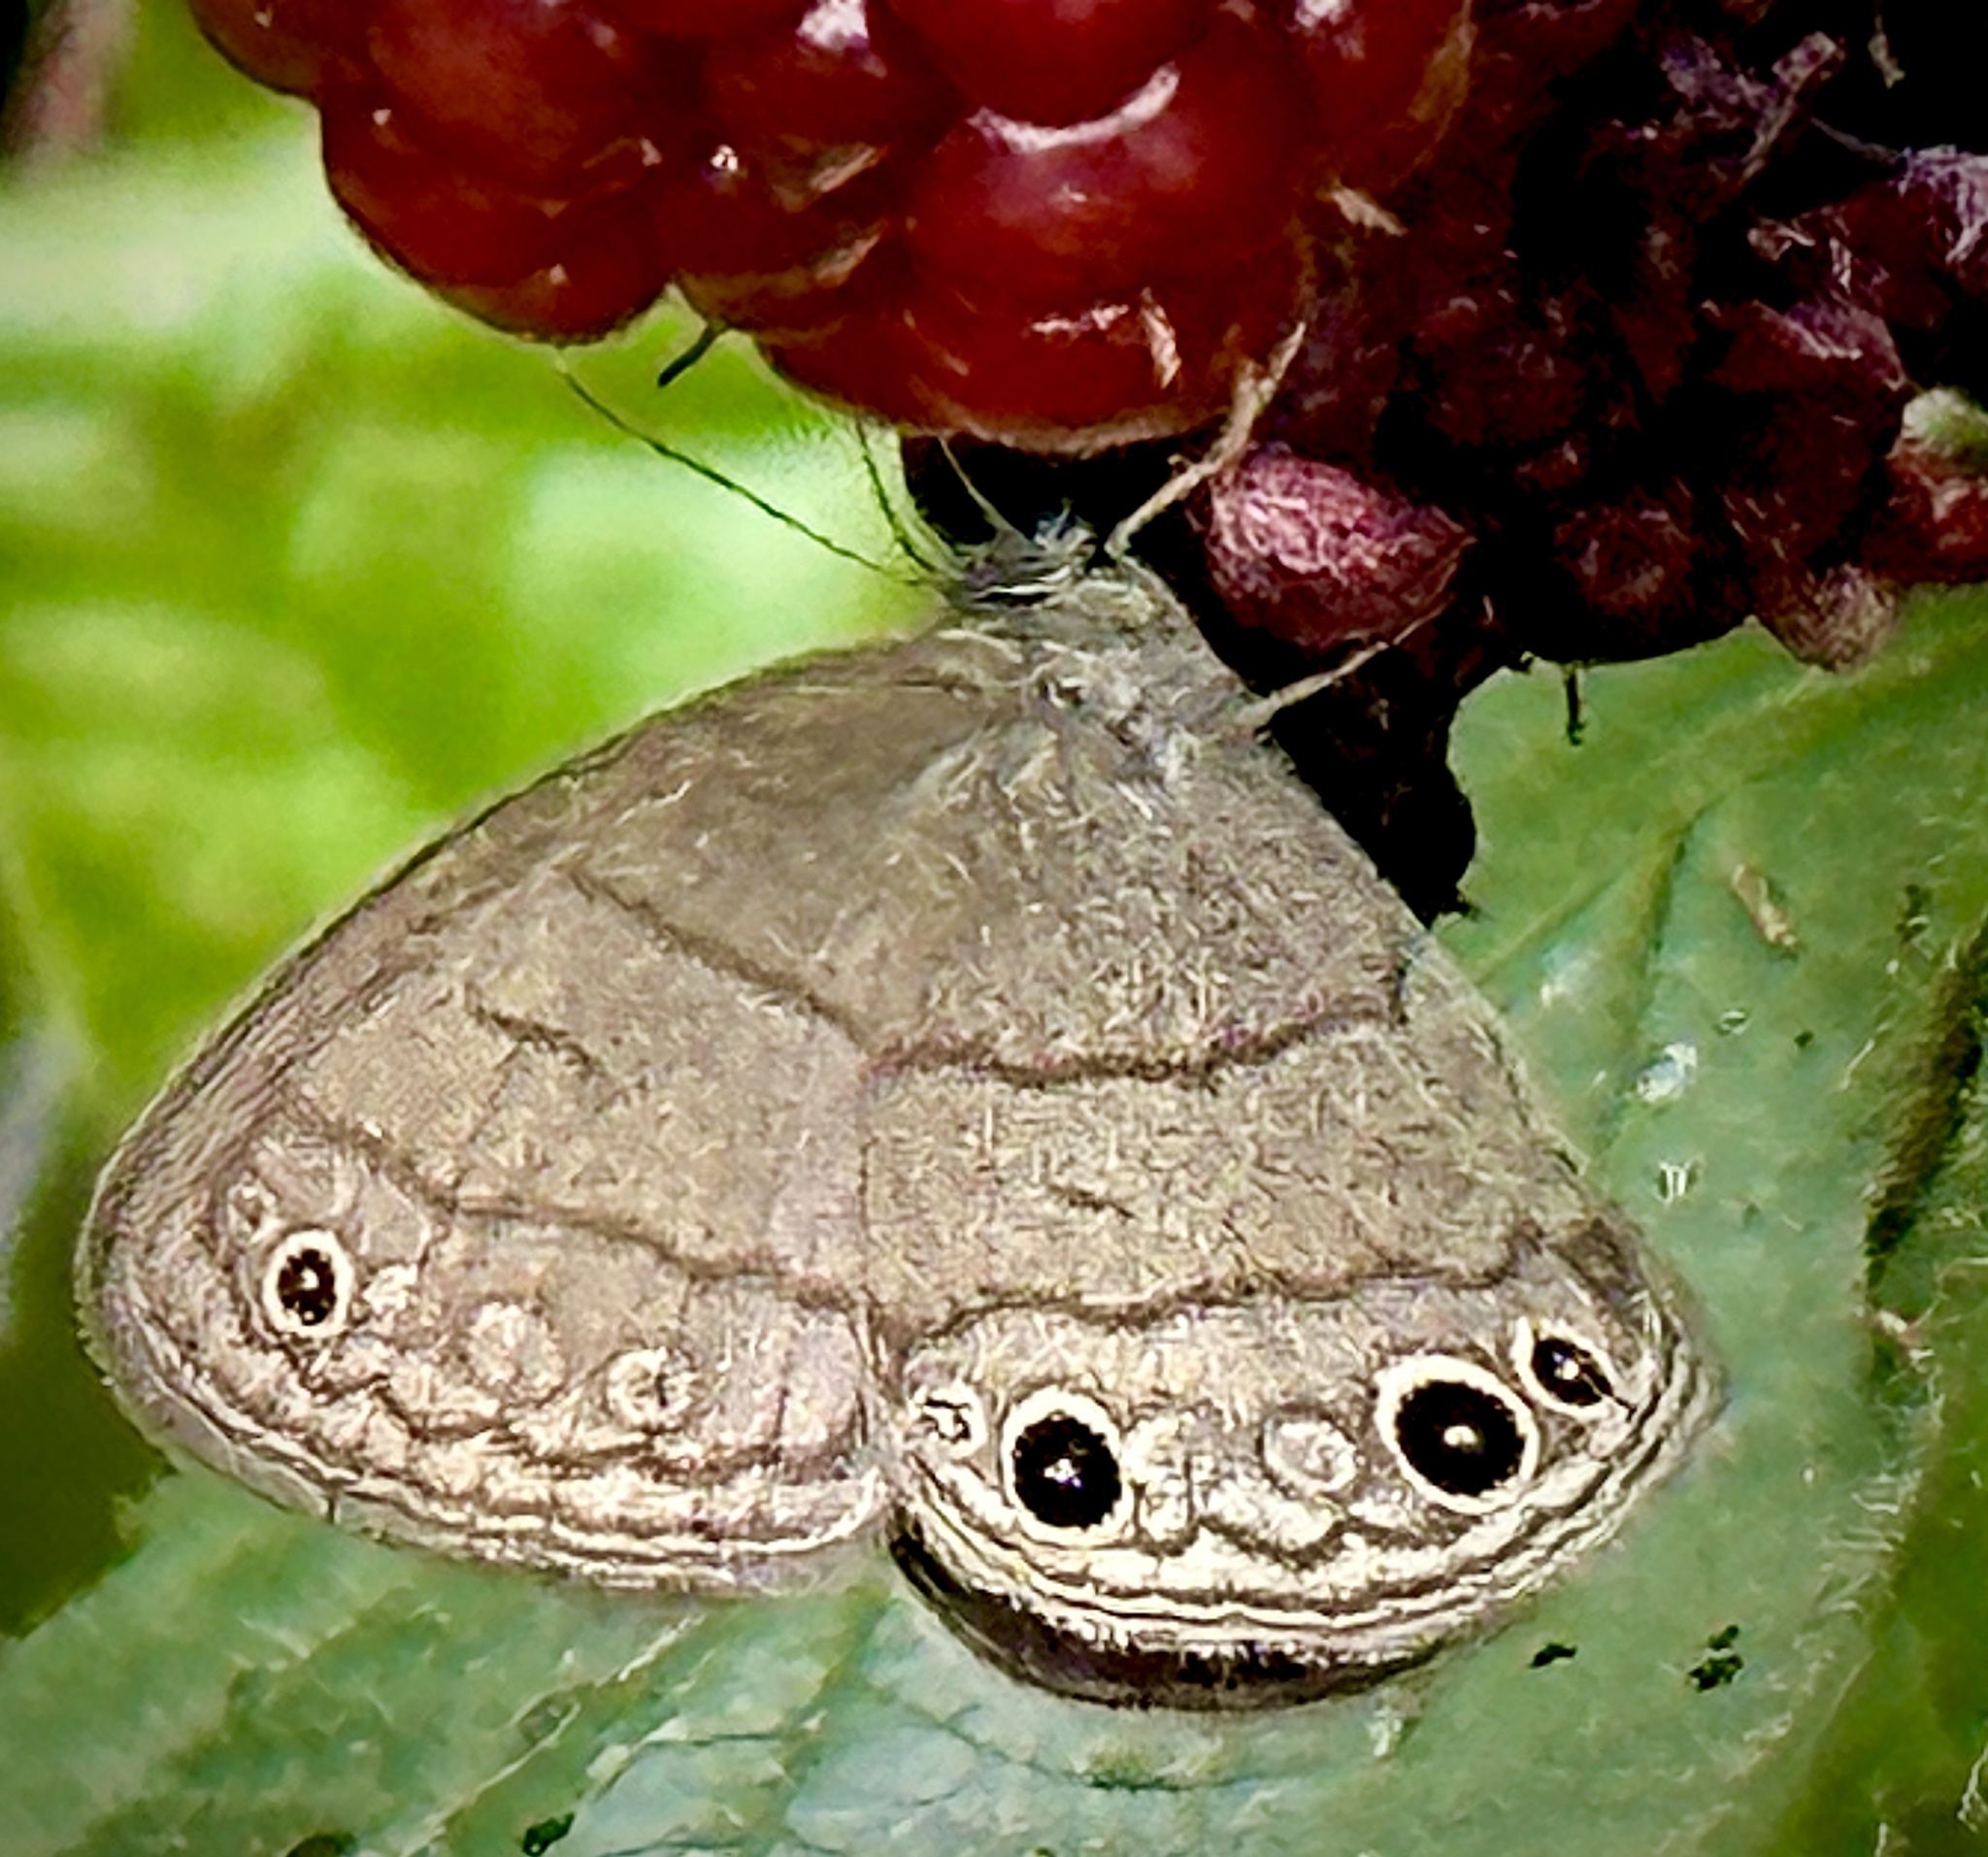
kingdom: Animalia
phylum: Arthropoda
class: Insecta
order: Lepidoptera
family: Nymphalidae
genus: Hermeuptychia
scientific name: Hermeuptychia hermes
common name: Hermes satyr
